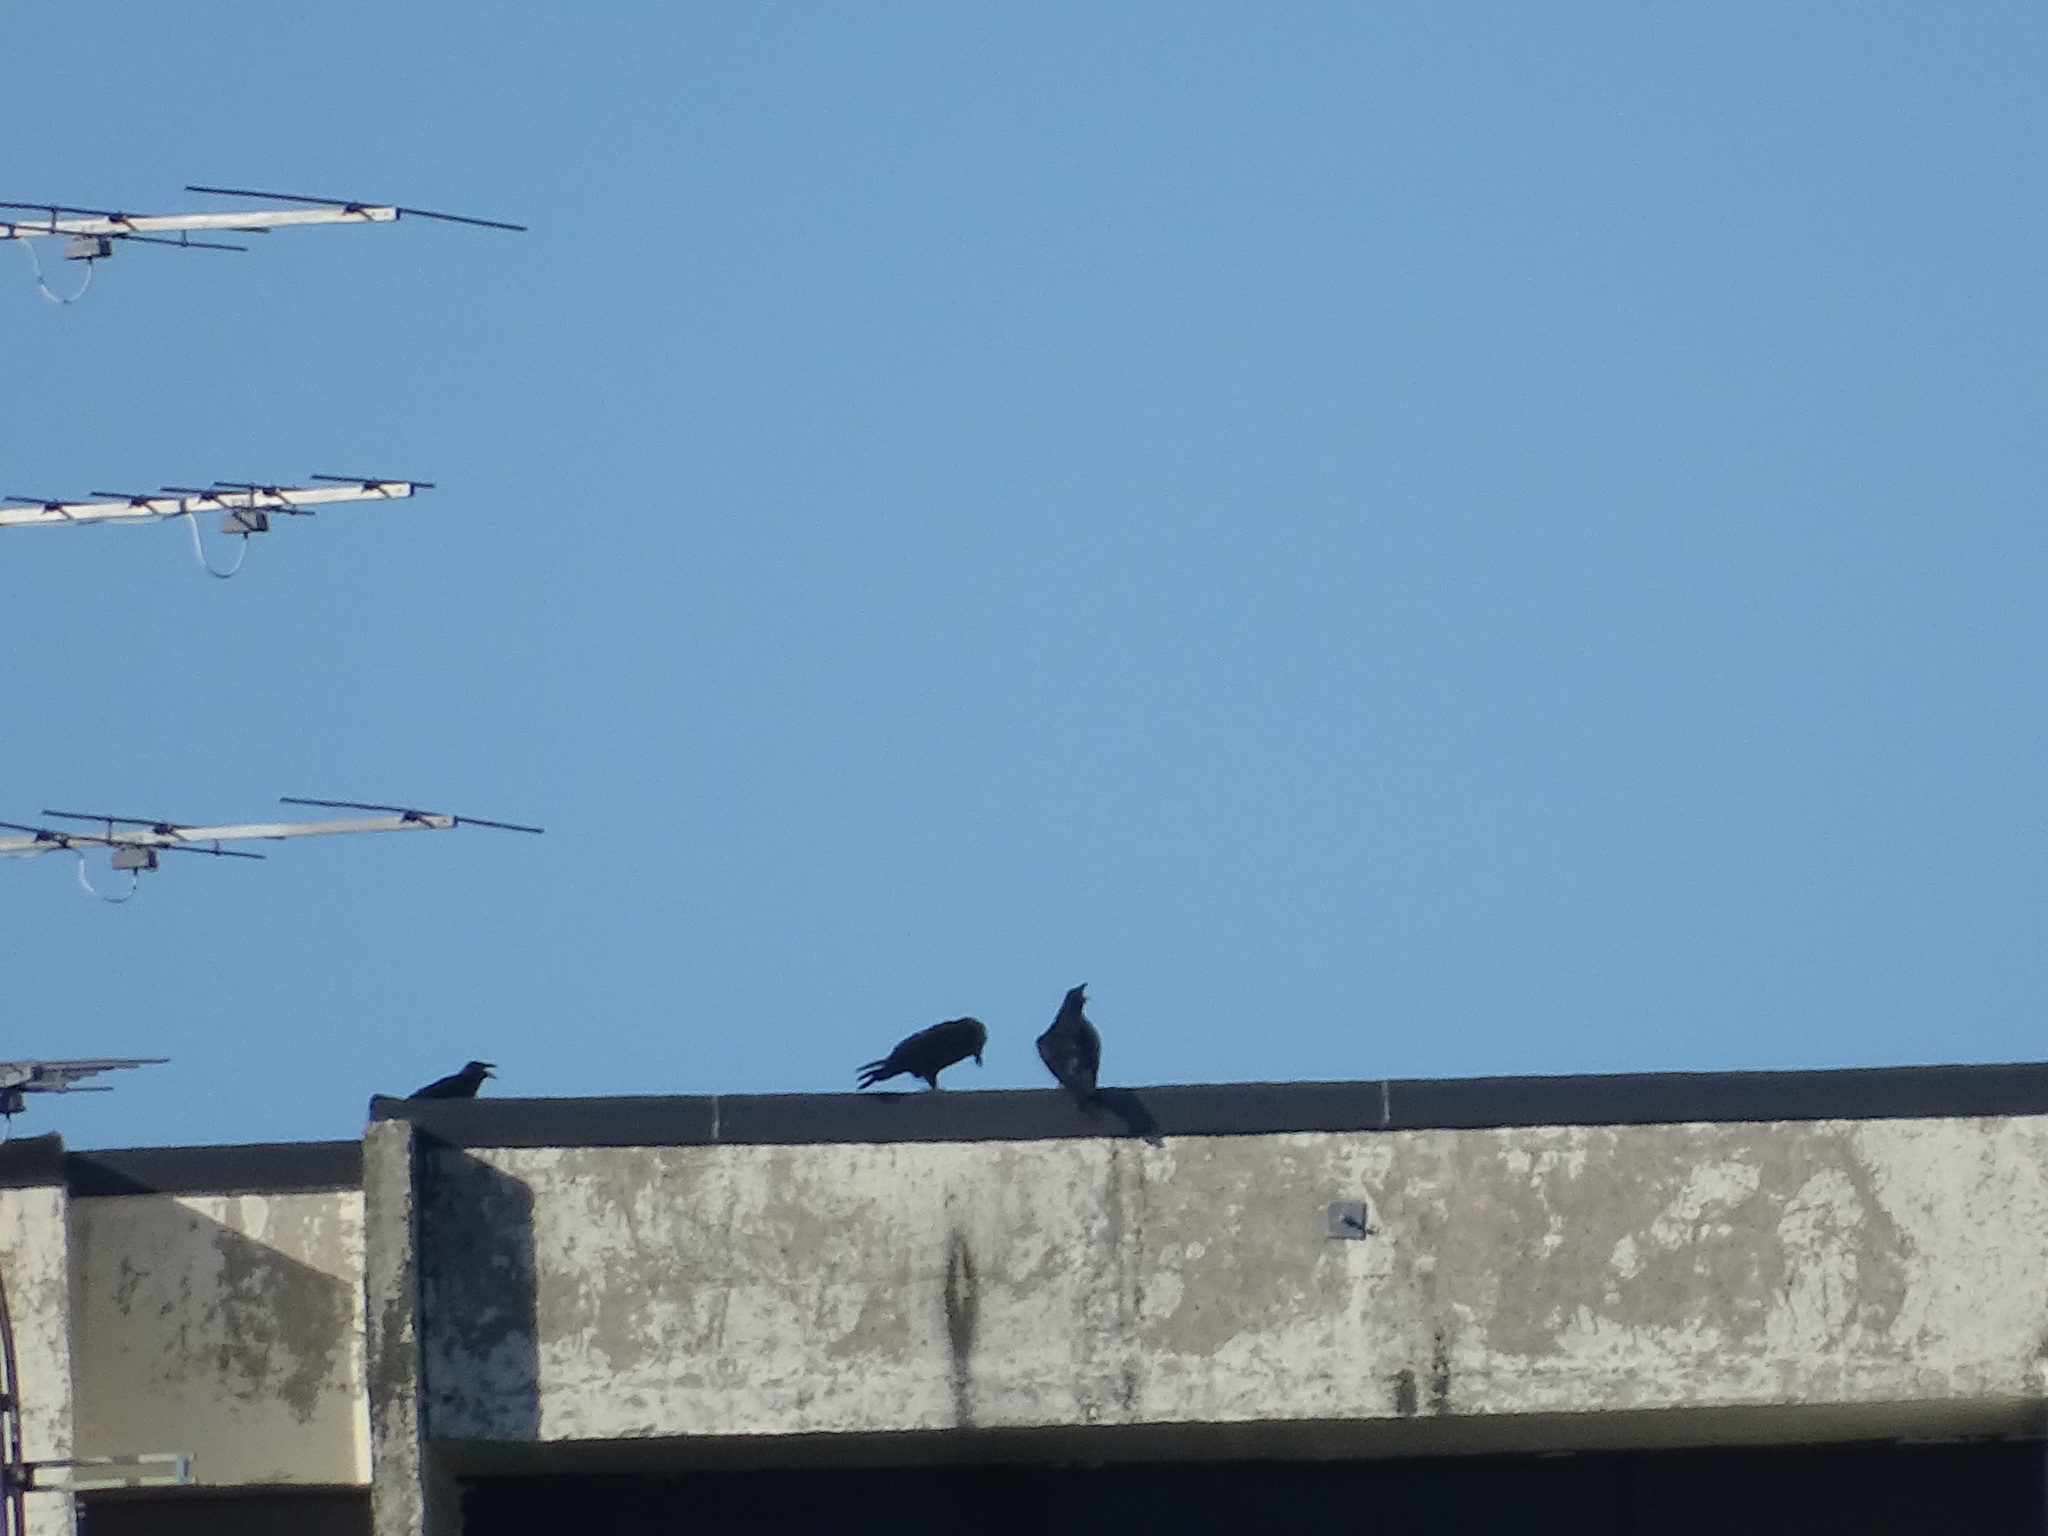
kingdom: Animalia
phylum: Chordata
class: Aves
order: Passeriformes
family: Corvidae
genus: Corvus
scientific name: Corvus corax
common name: Common raven
